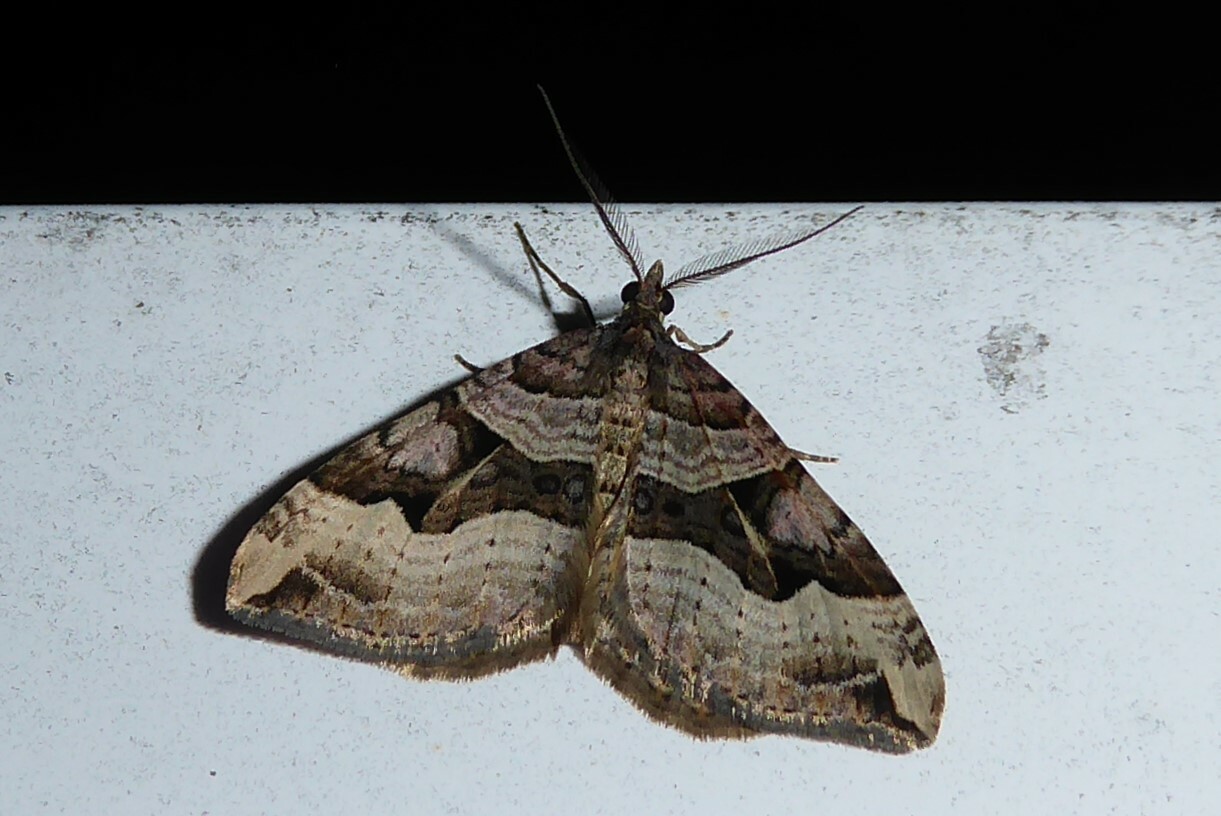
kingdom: Animalia
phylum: Arthropoda
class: Insecta
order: Lepidoptera
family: Geometridae
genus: Xanthorhoe
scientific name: Xanthorhoe semifissata
